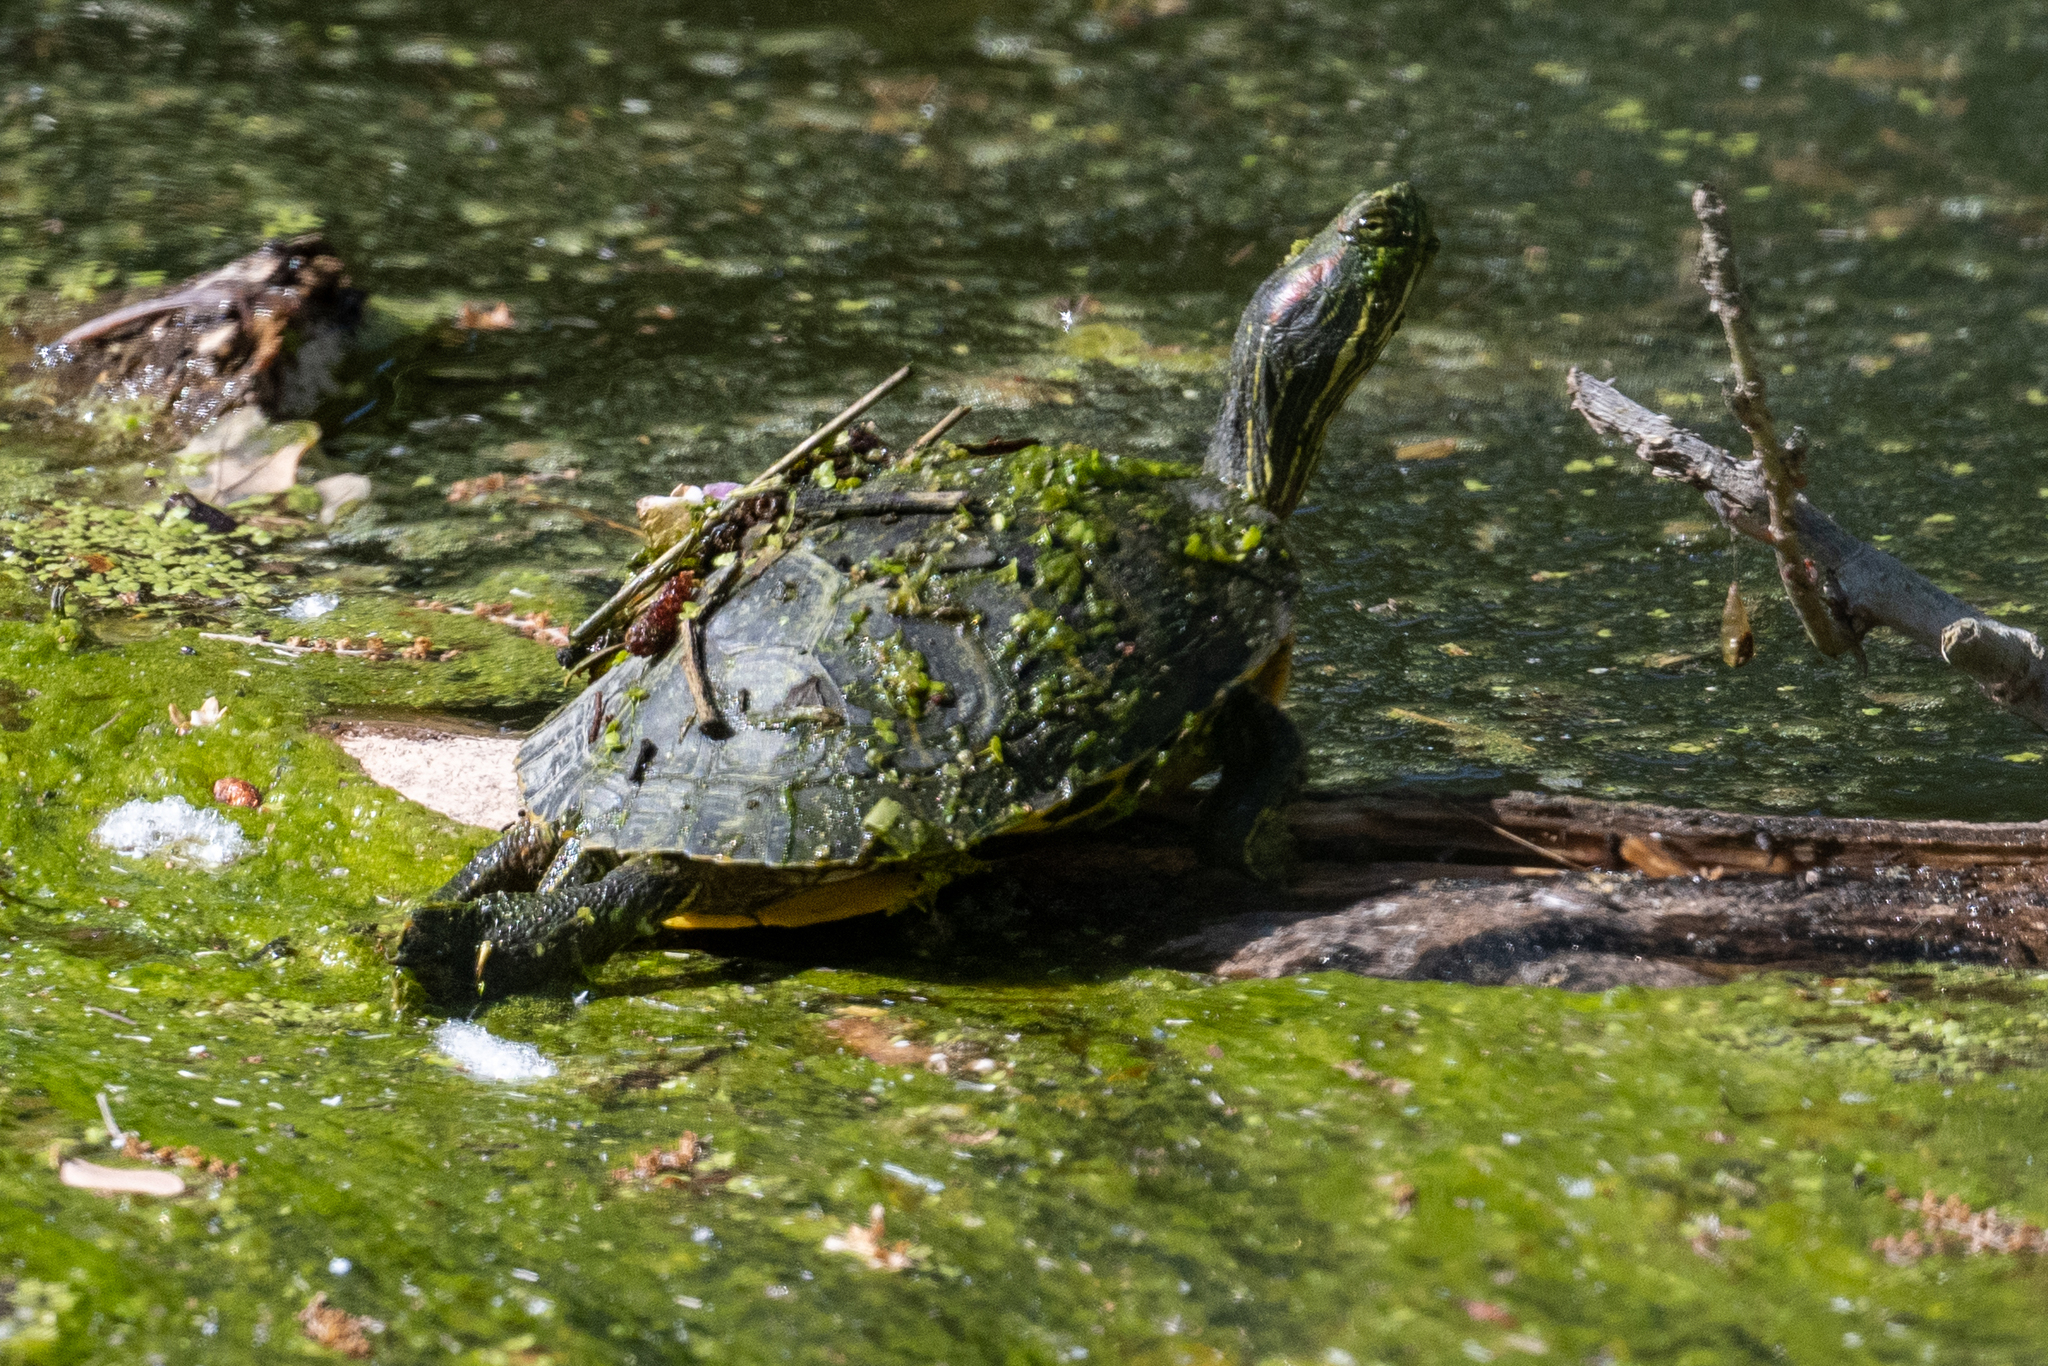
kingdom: Animalia
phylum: Chordata
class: Testudines
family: Emydidae
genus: Trachemys
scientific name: Trachemys scripta
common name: Slider
